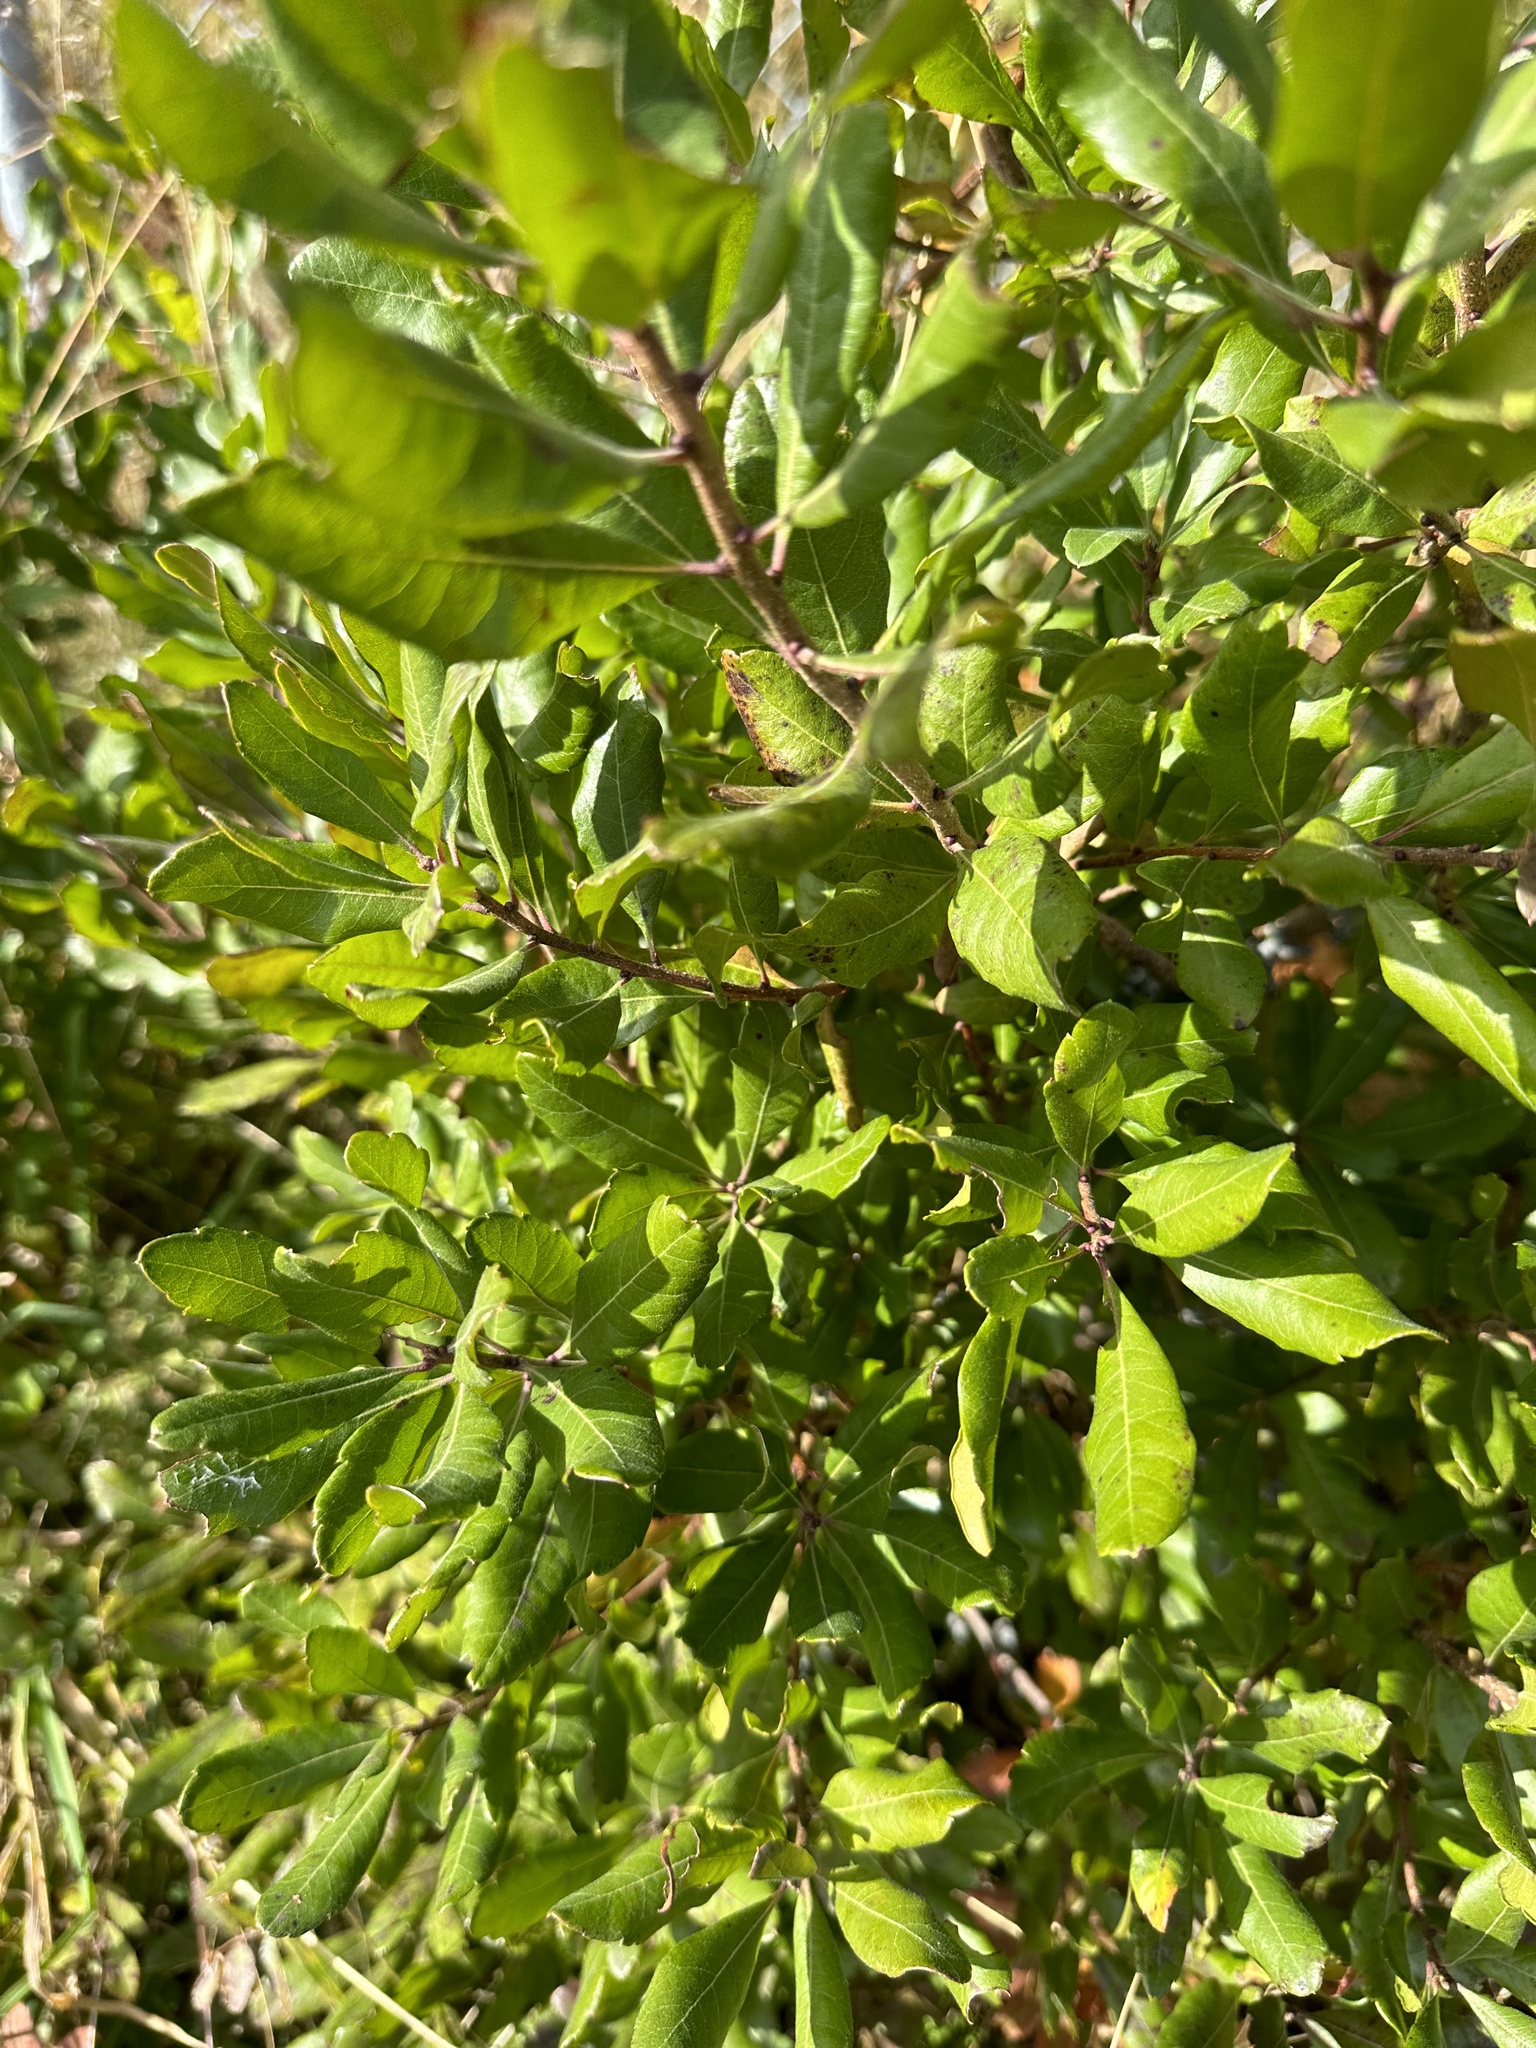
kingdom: Plantae
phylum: Tracheophyta
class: Magnoliopsida
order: Fagales
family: Myricaceae
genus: Morella
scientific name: Morella pensylvanica
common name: Northern bayberry
